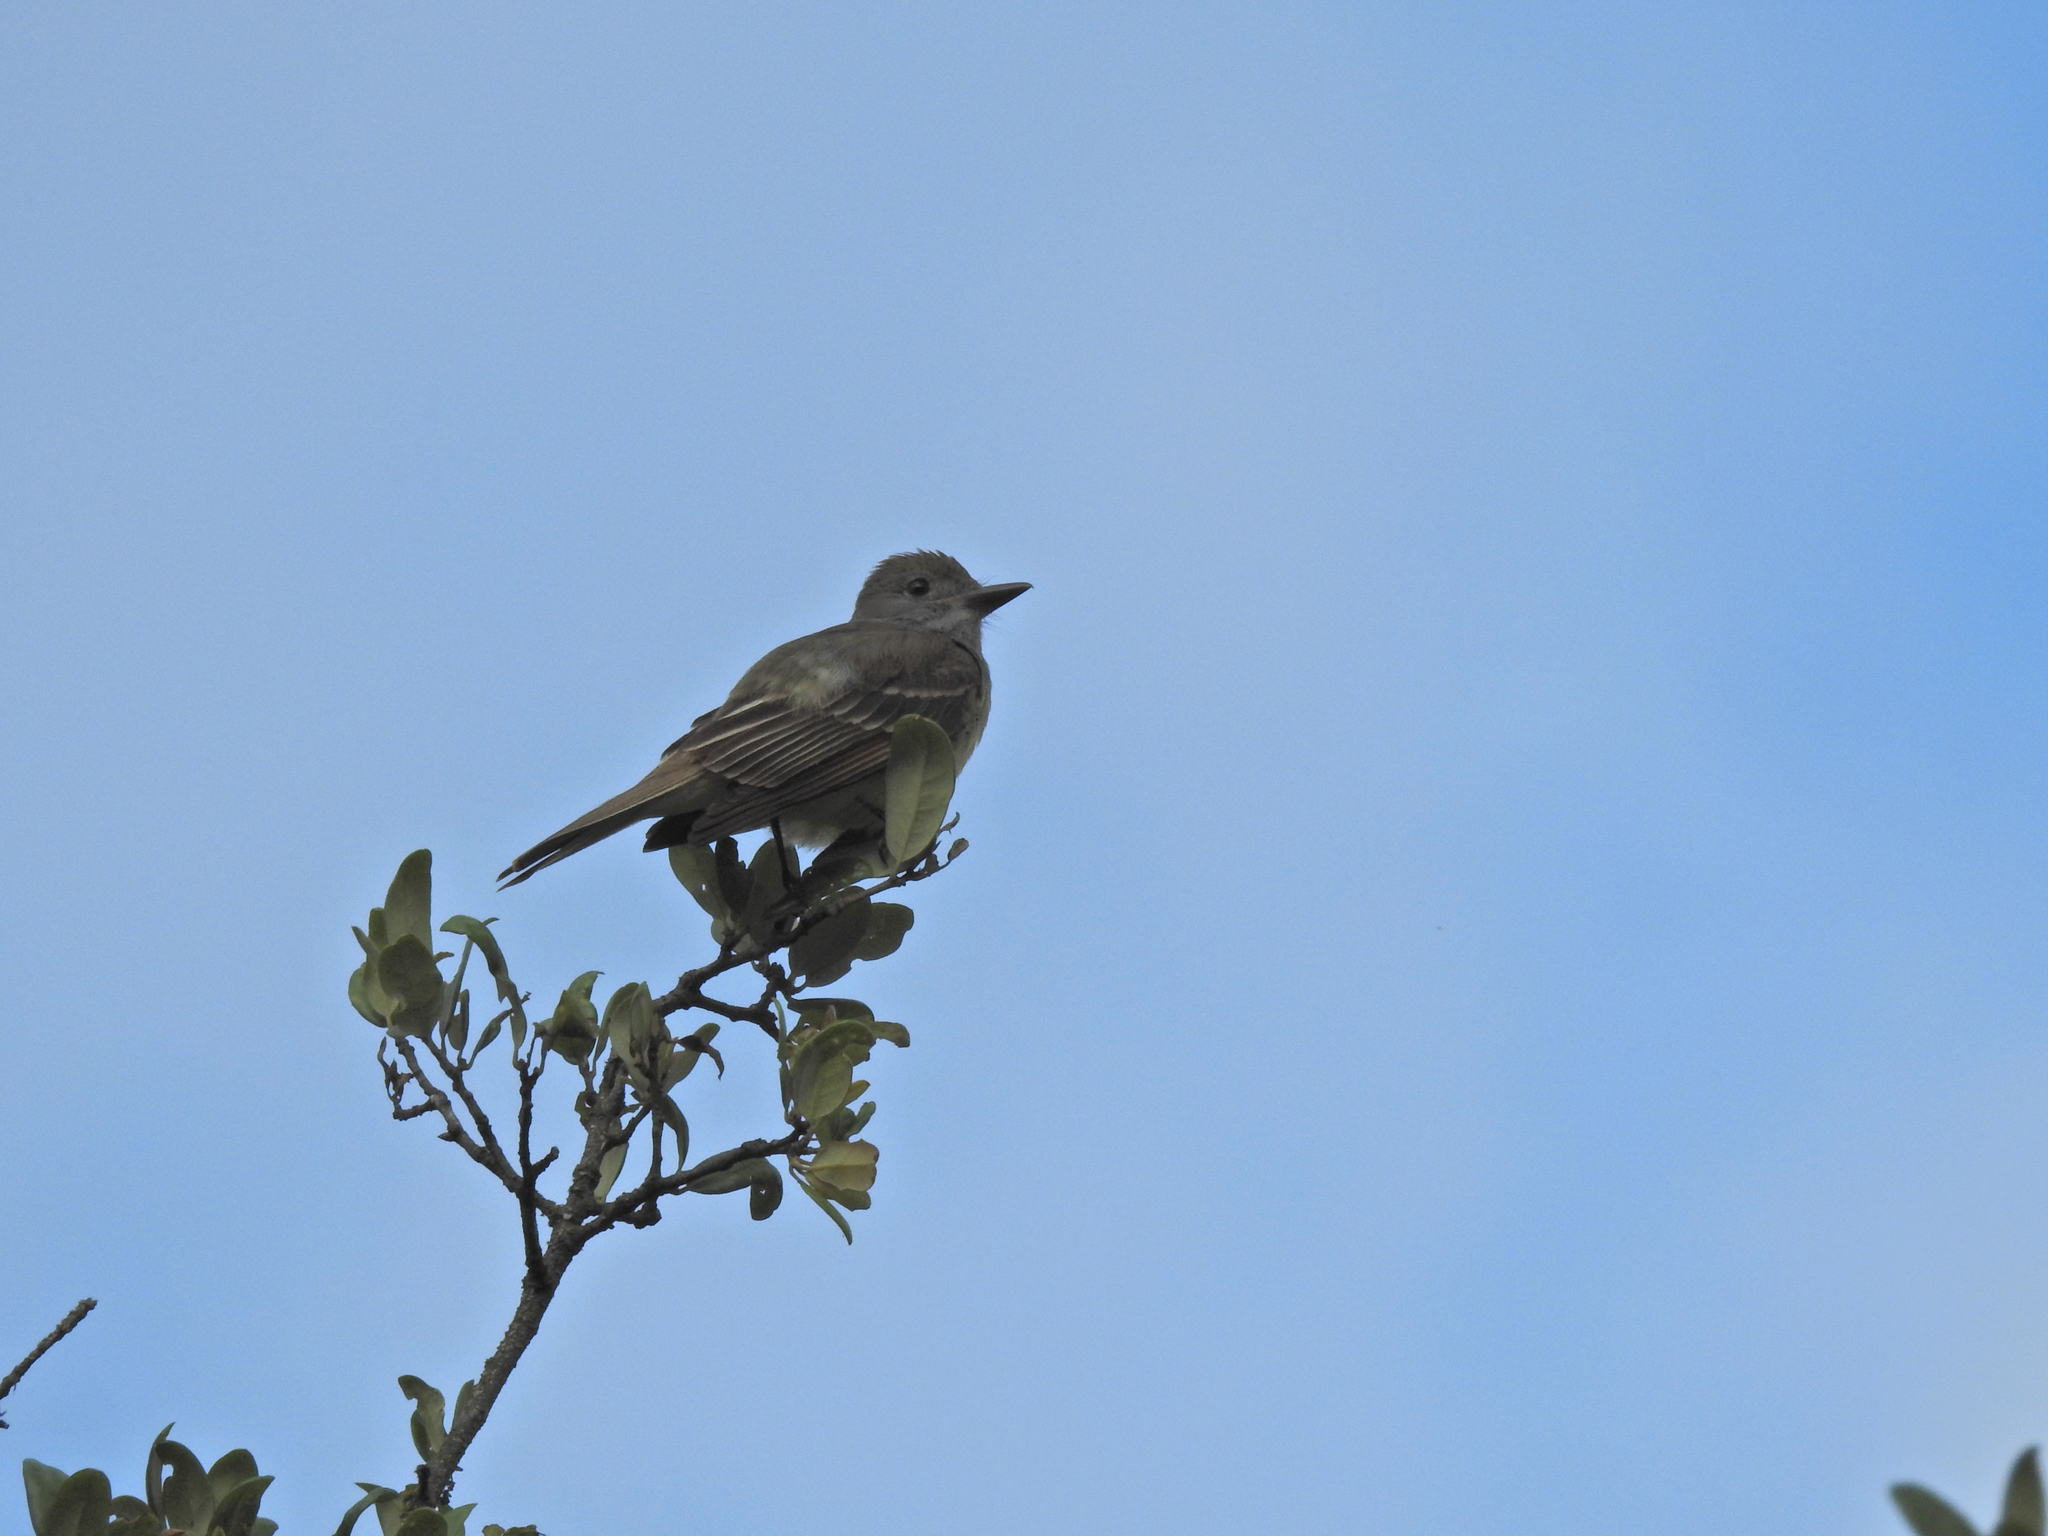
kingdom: Animalia
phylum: Chordata
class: Aves
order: Passeriformes
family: Tyrannidae
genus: Myiarchus
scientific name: Myiarchus crinitus
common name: Great crested flycatcher
